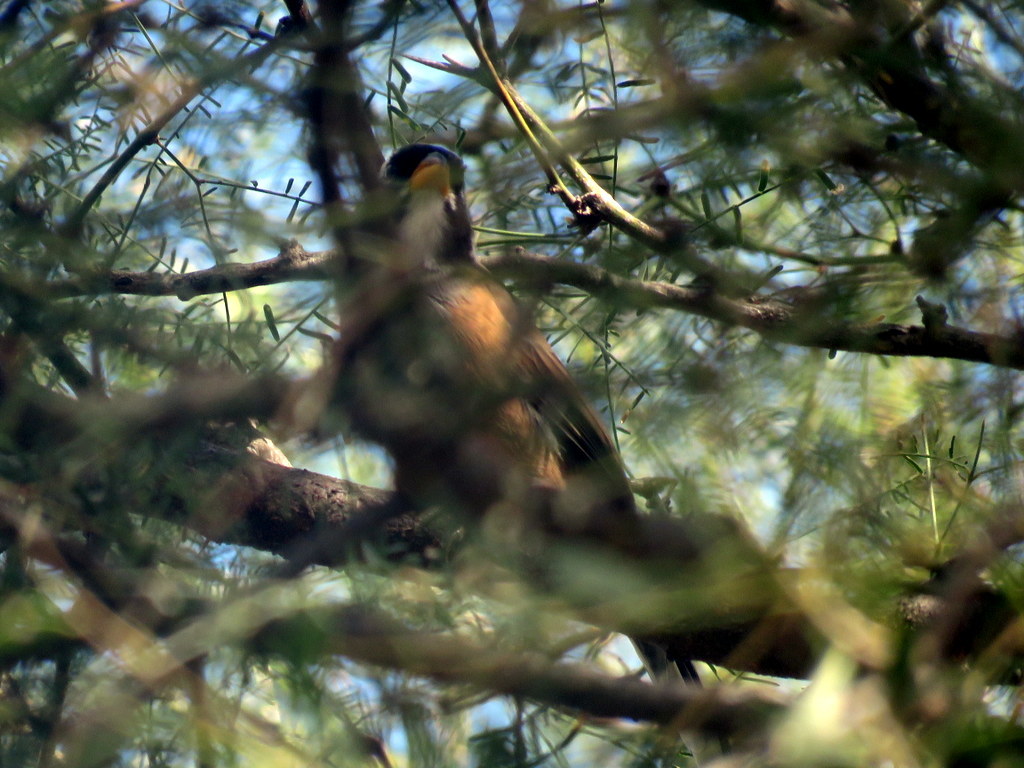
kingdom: Animalia
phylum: Chordata
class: Aves
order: Passeriformes
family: Thraupidae
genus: Saltatricula
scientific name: Saltatricula multicolor
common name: Many-colored chaco finch
